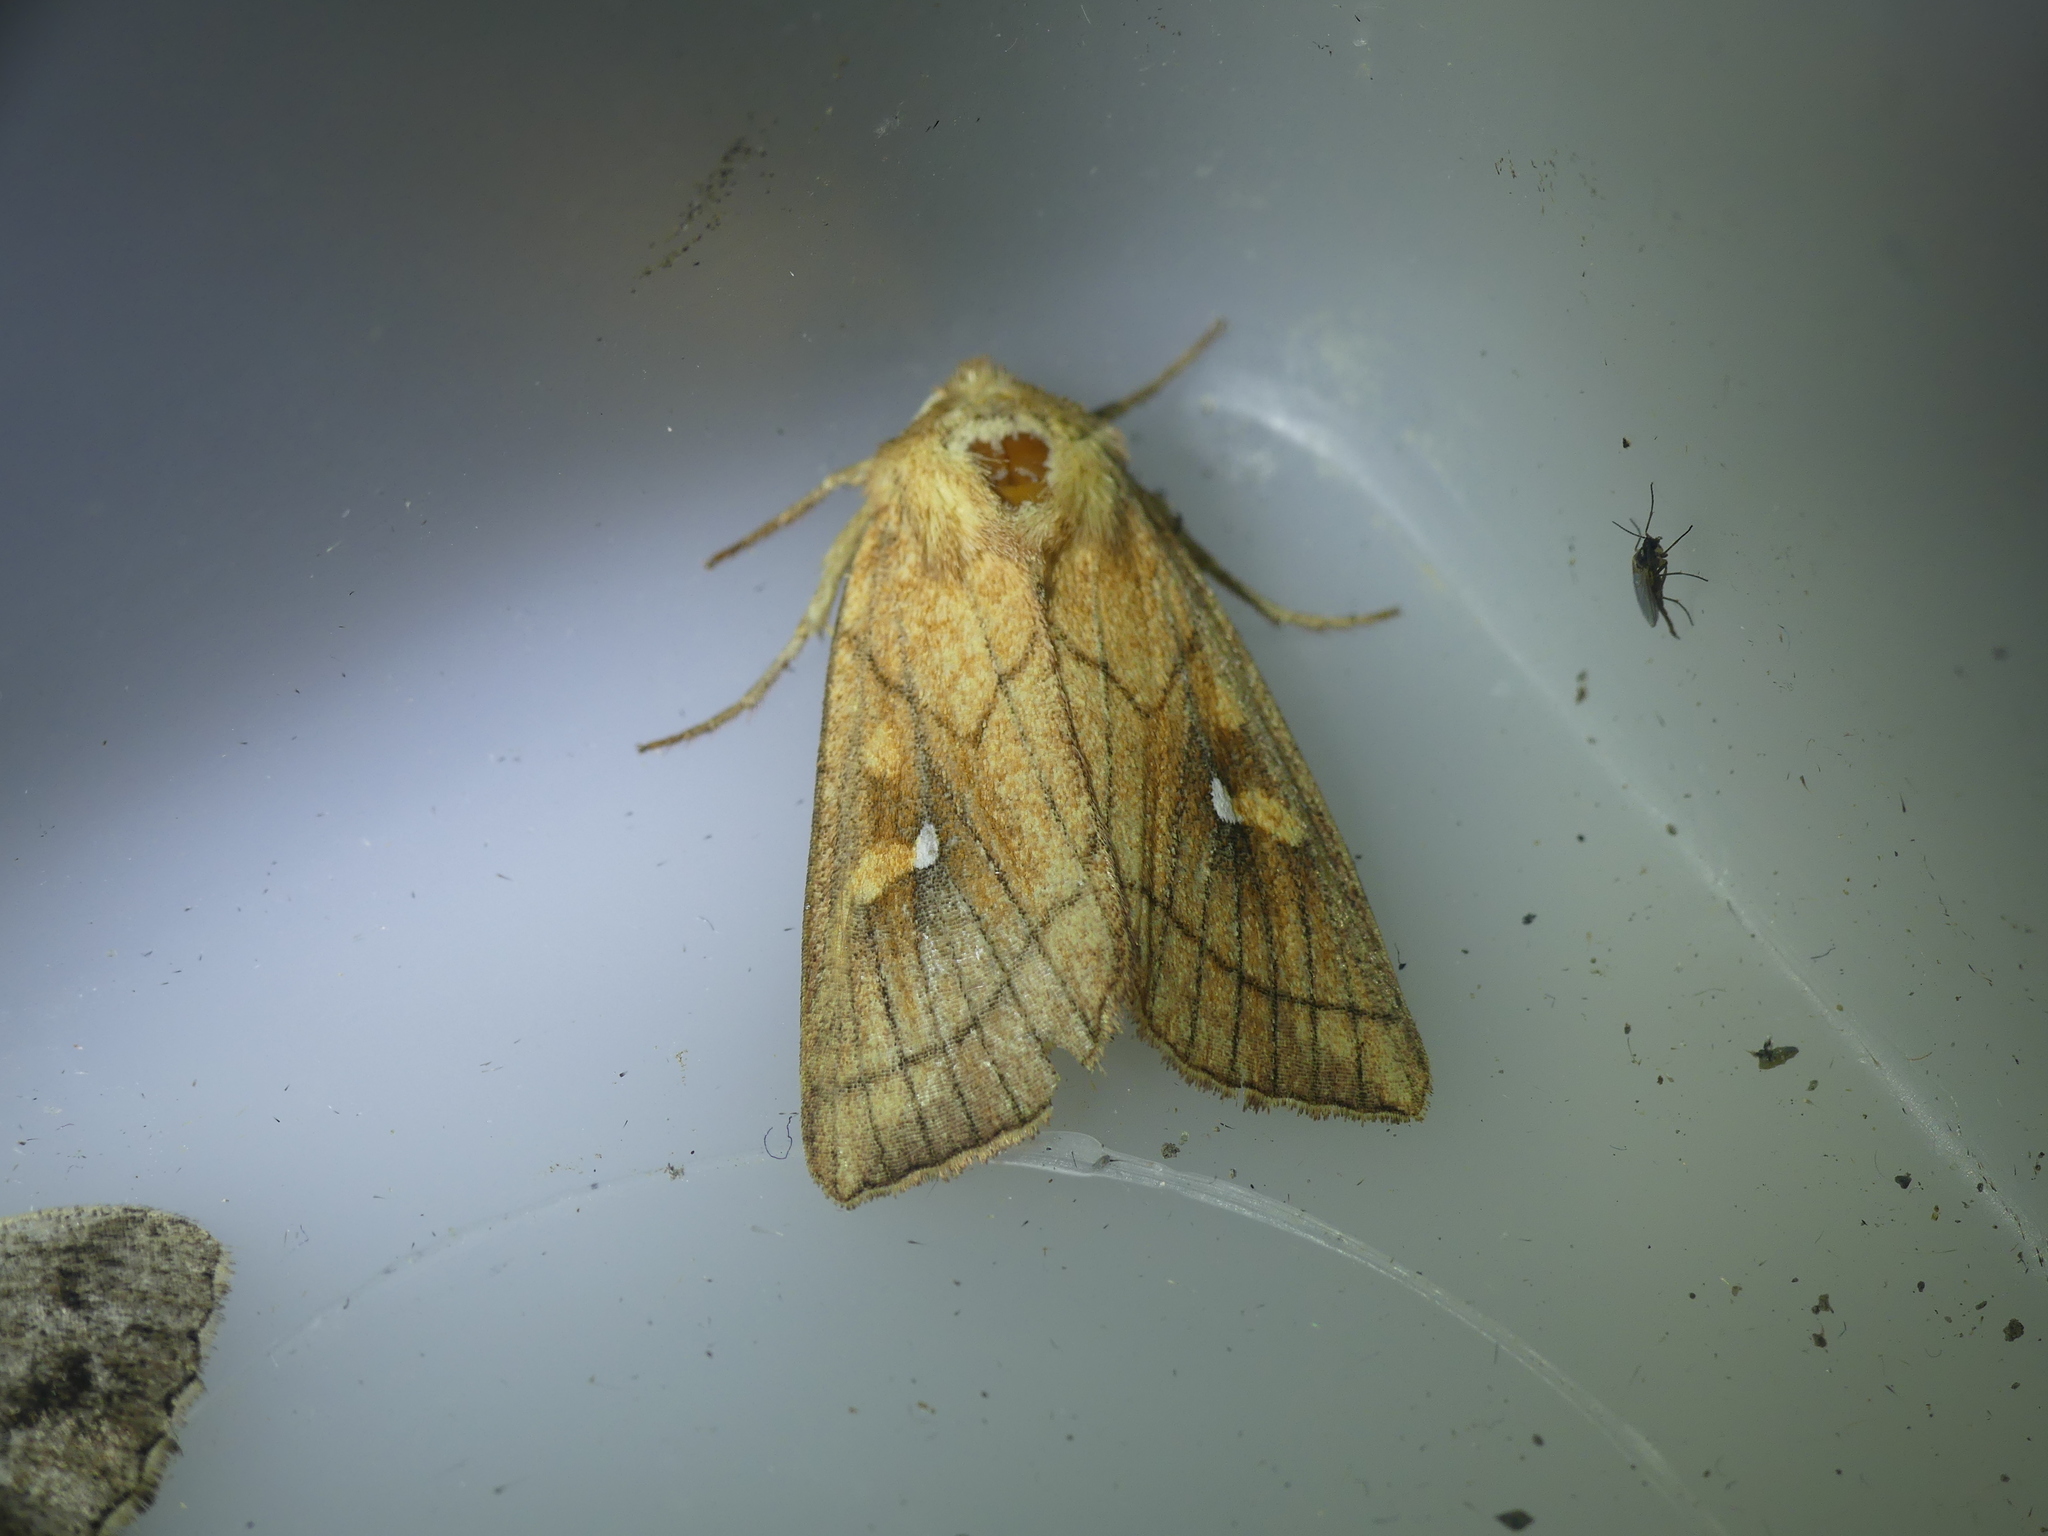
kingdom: Animalia
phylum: Arthropoda
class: Insecta
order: Lepidoptera
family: Noctuidae
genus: Mythimna
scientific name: Mythimna conigera
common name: Brown-line bright-eye
